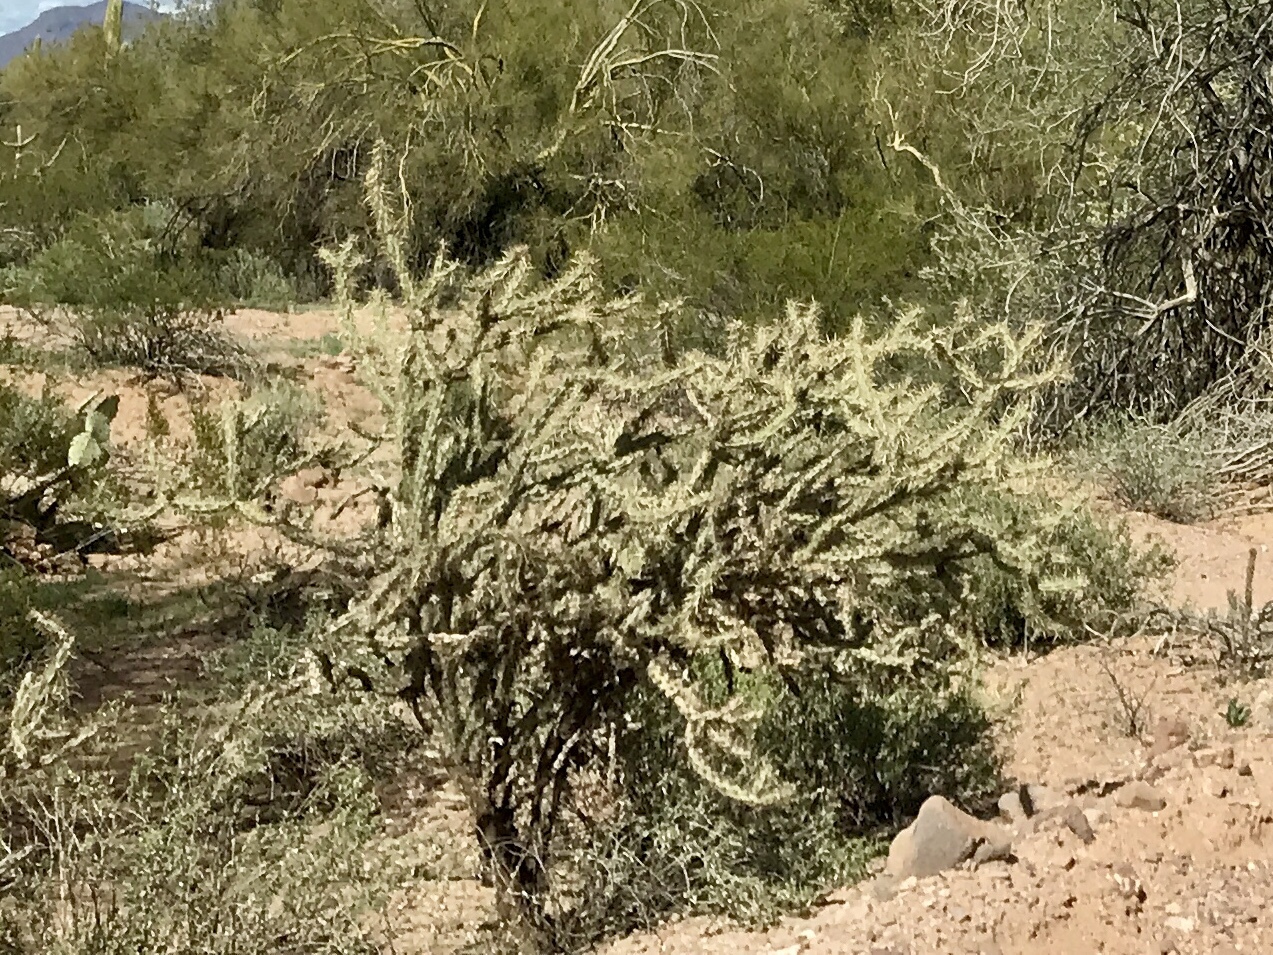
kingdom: Plantae
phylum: Tracheophyta
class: Magnoliopsida
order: Caryophyllales
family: Cactaceae
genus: Cylindropuntia
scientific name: Cylindropuntia acanthocarpa
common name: Buckhorn cholla
